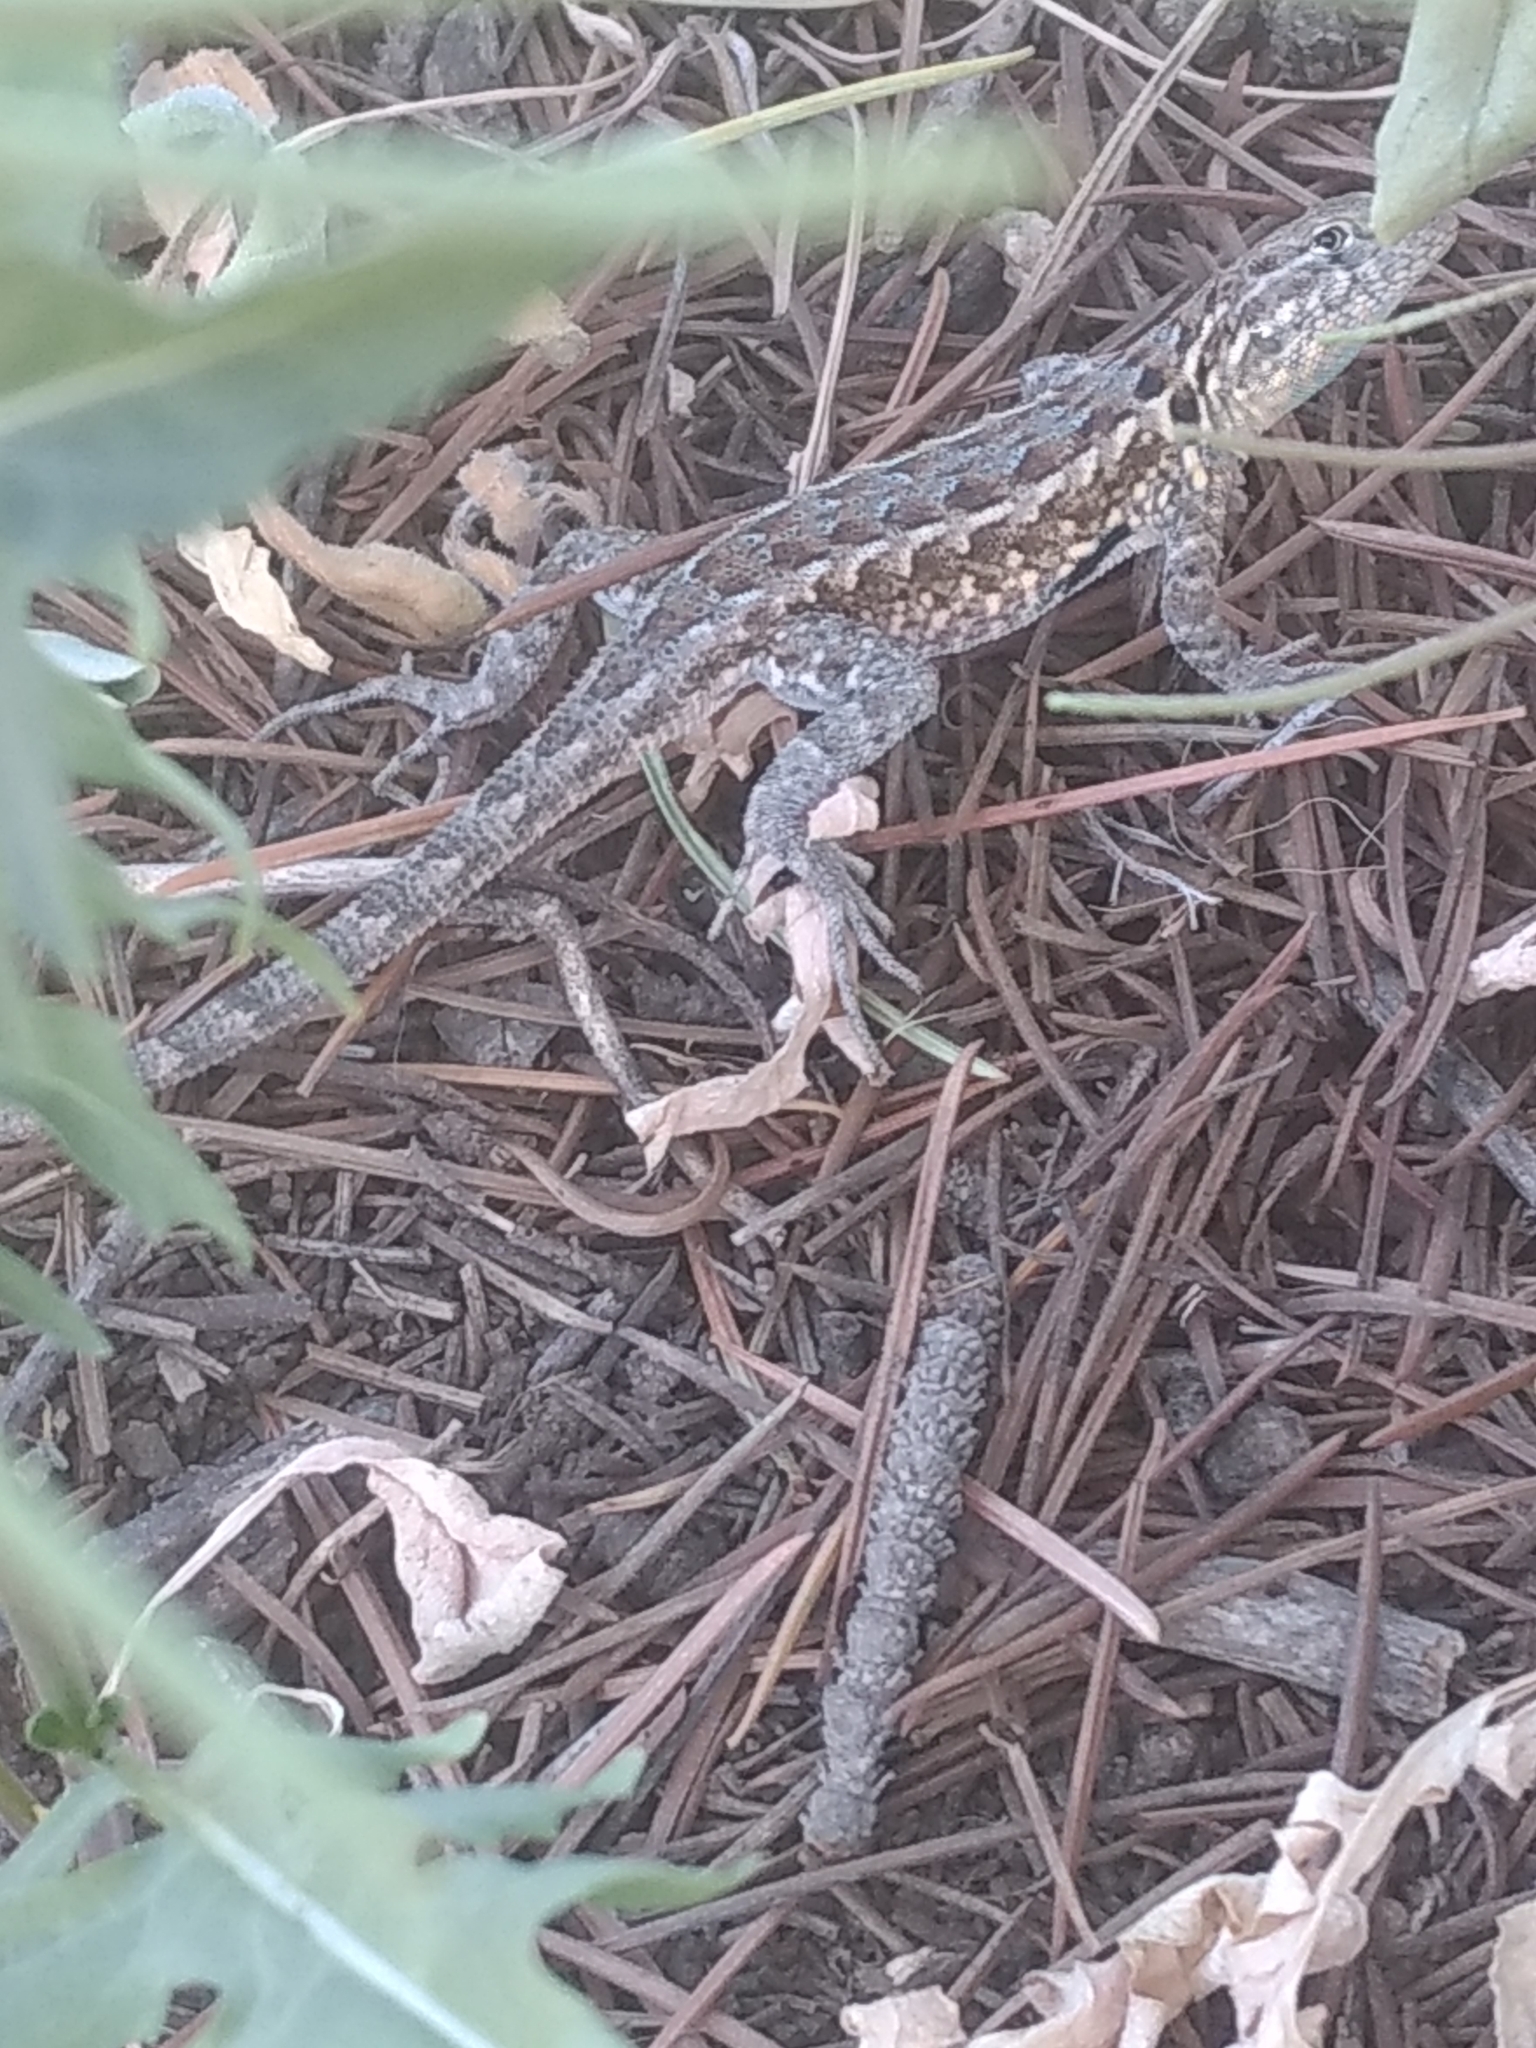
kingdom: Animalia
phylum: Chordata
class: Squamata
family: Phrynosomatidae
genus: Uta
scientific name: Uta stansburiana
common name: Side-blotched lizard
